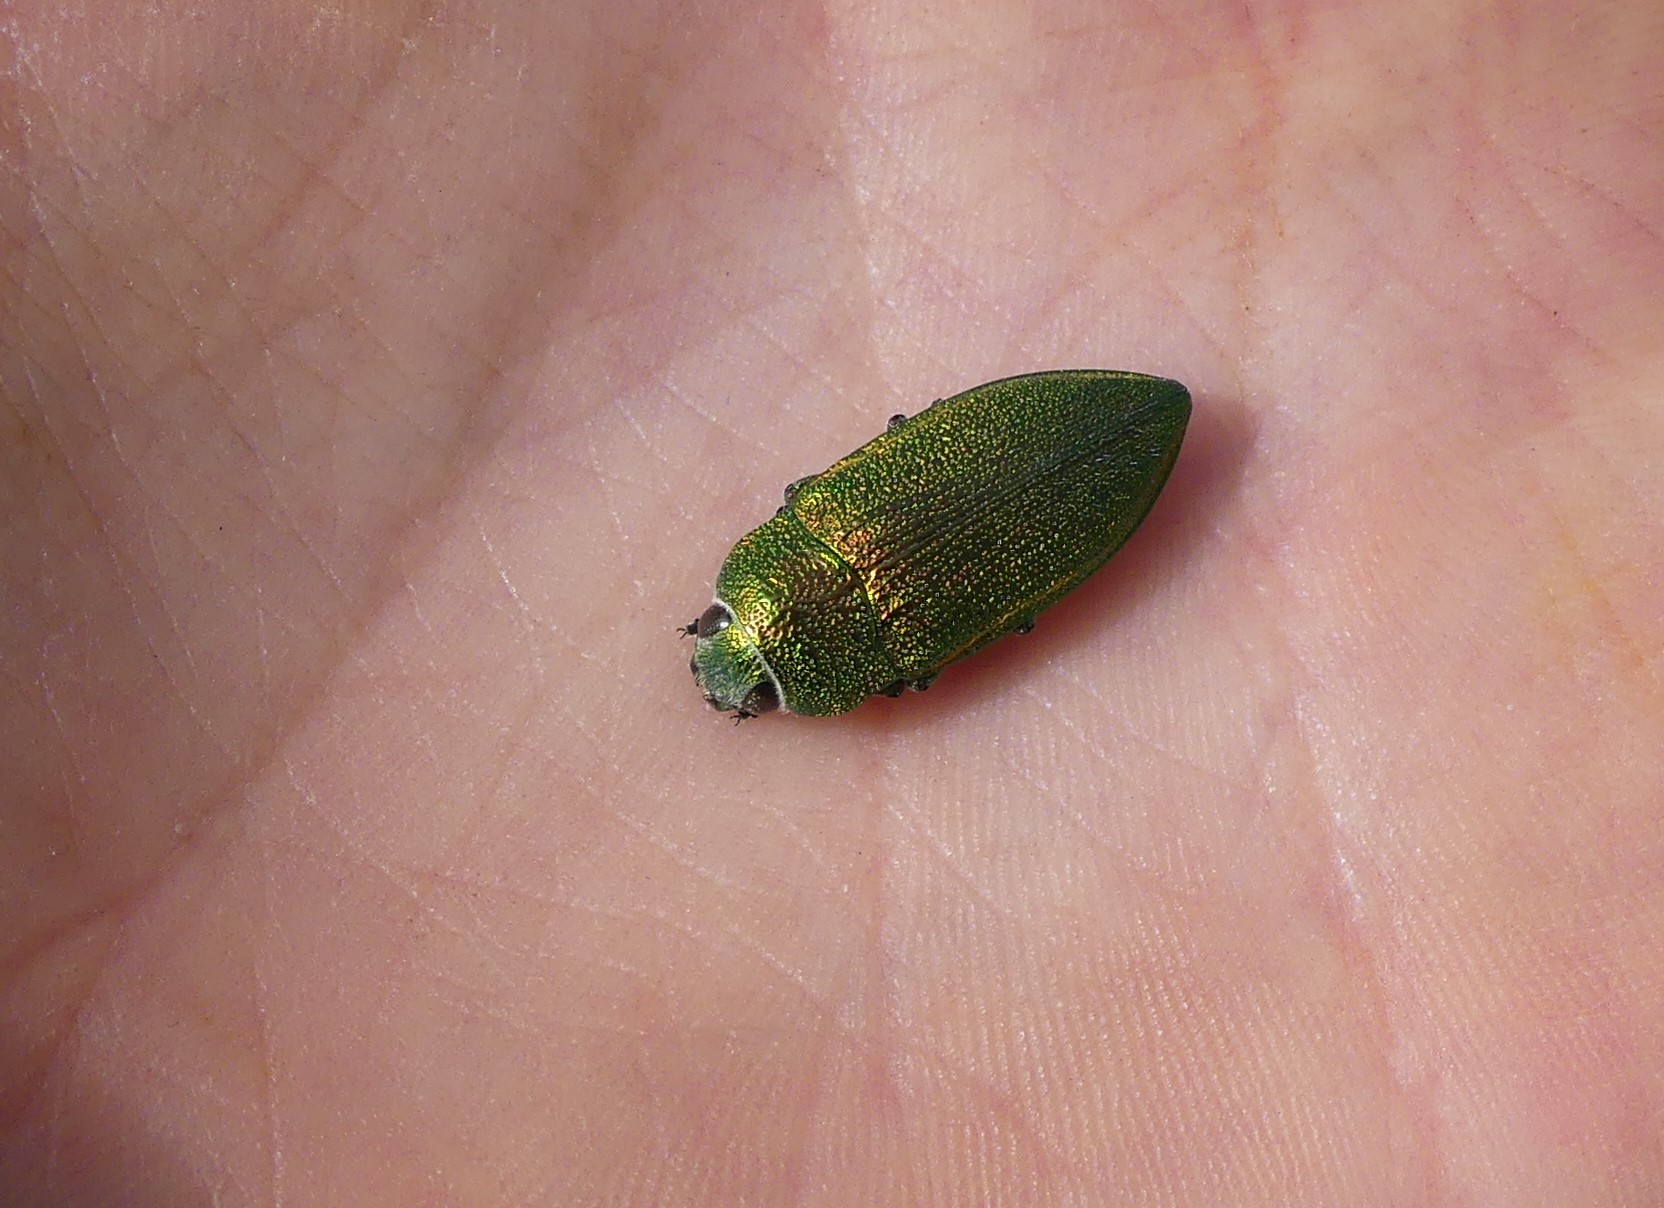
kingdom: Animalia
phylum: Arthropoda
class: Insecta
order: Coleoptera
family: Buprestidae
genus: Perotis
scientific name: Perotis unicolor
